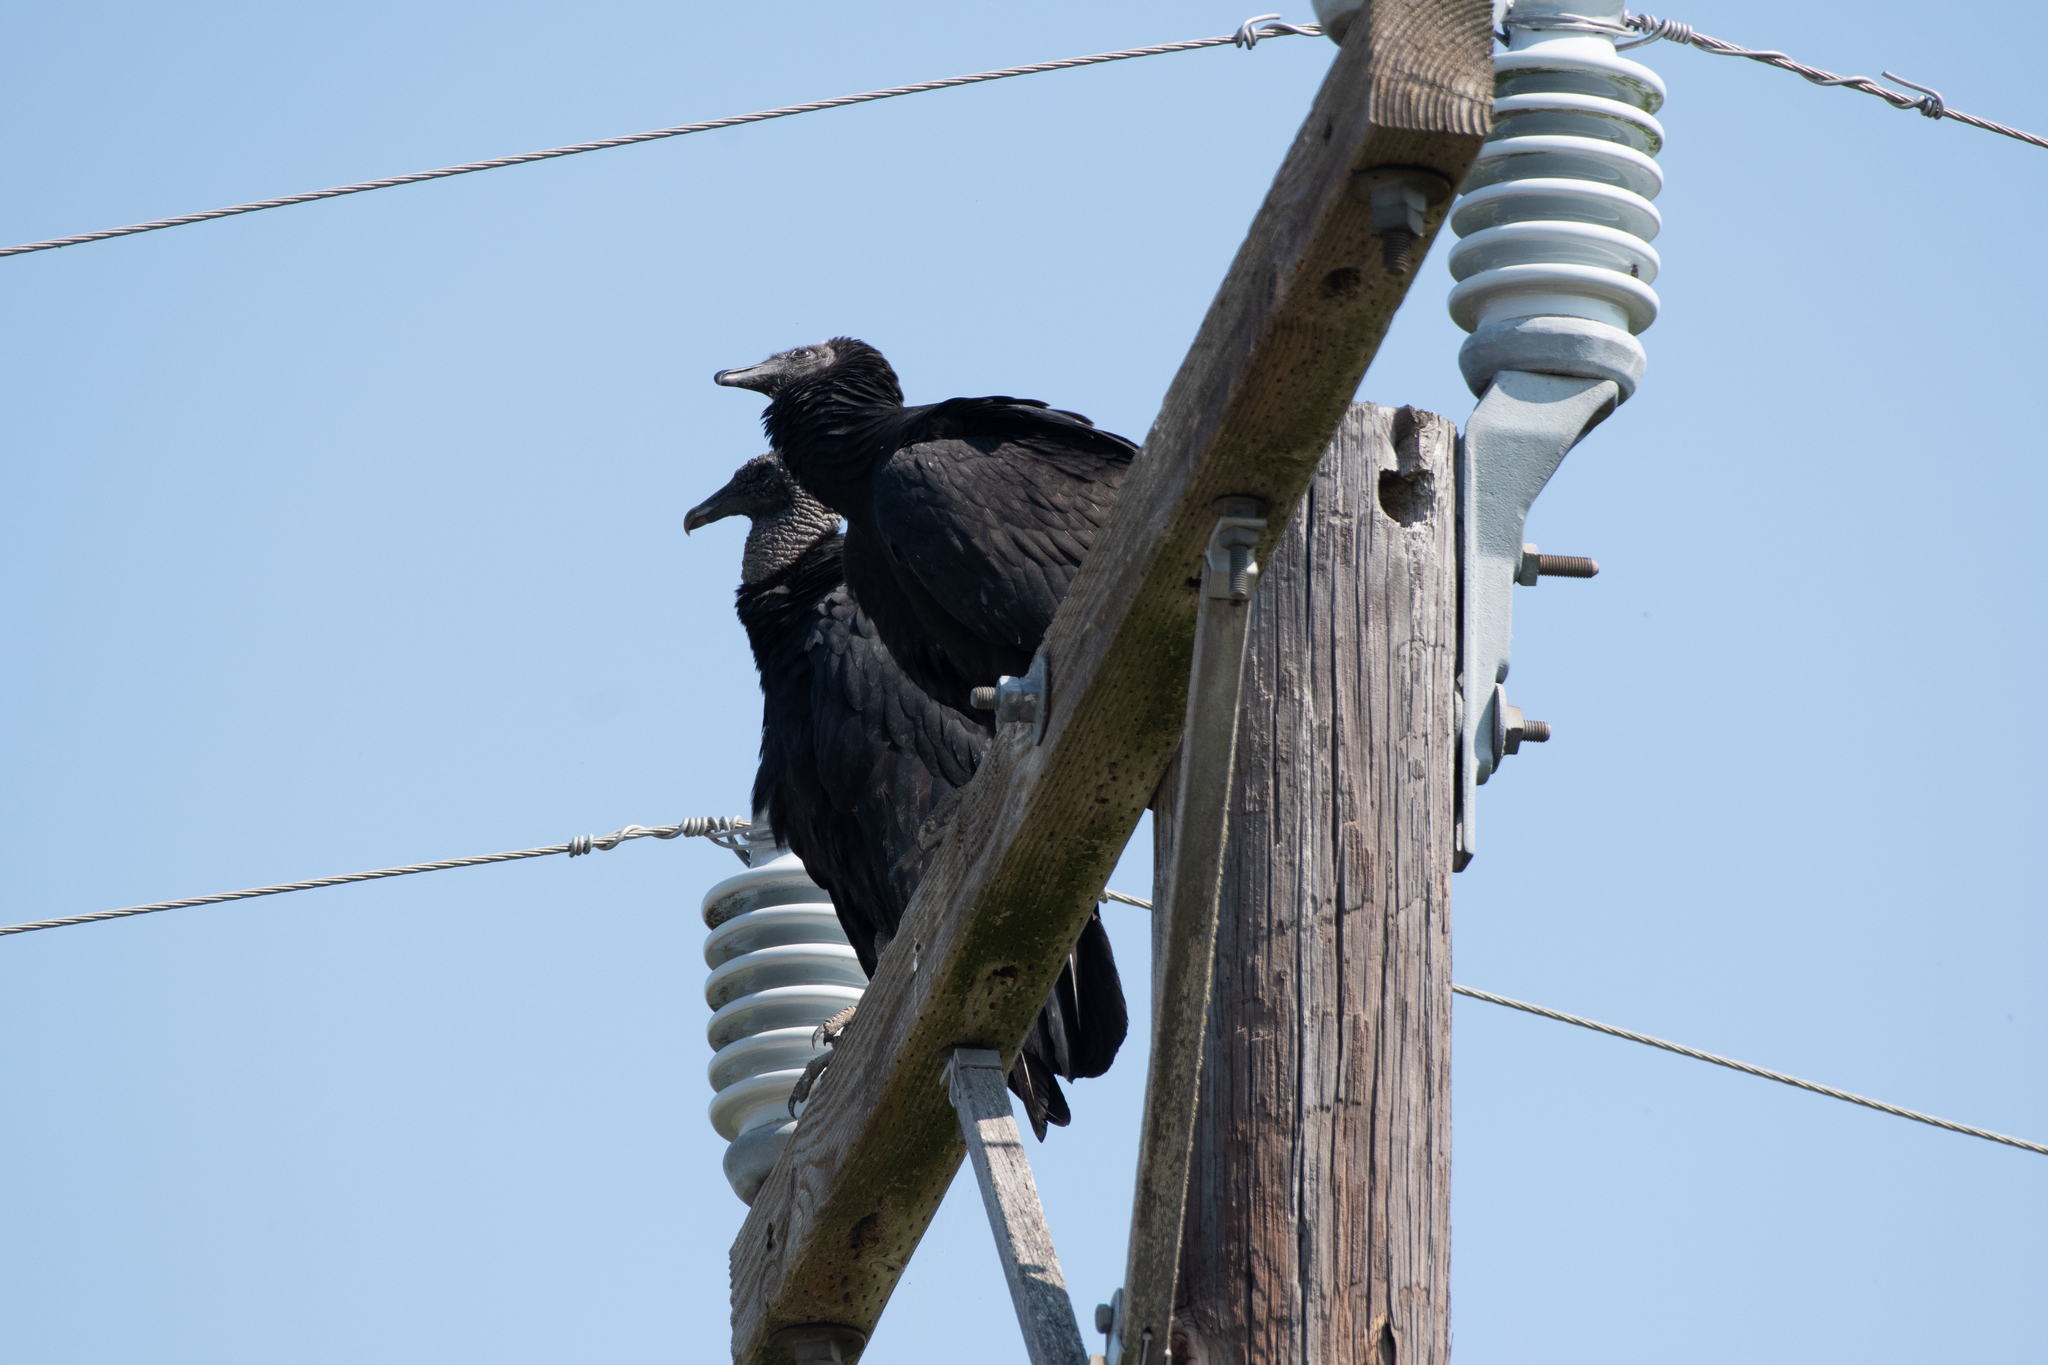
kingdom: Animalia
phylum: Chordata
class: Aves
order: Accipitriformes
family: Cathartidae
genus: Coragyps
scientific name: Coragyps atratus
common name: Black vulture
